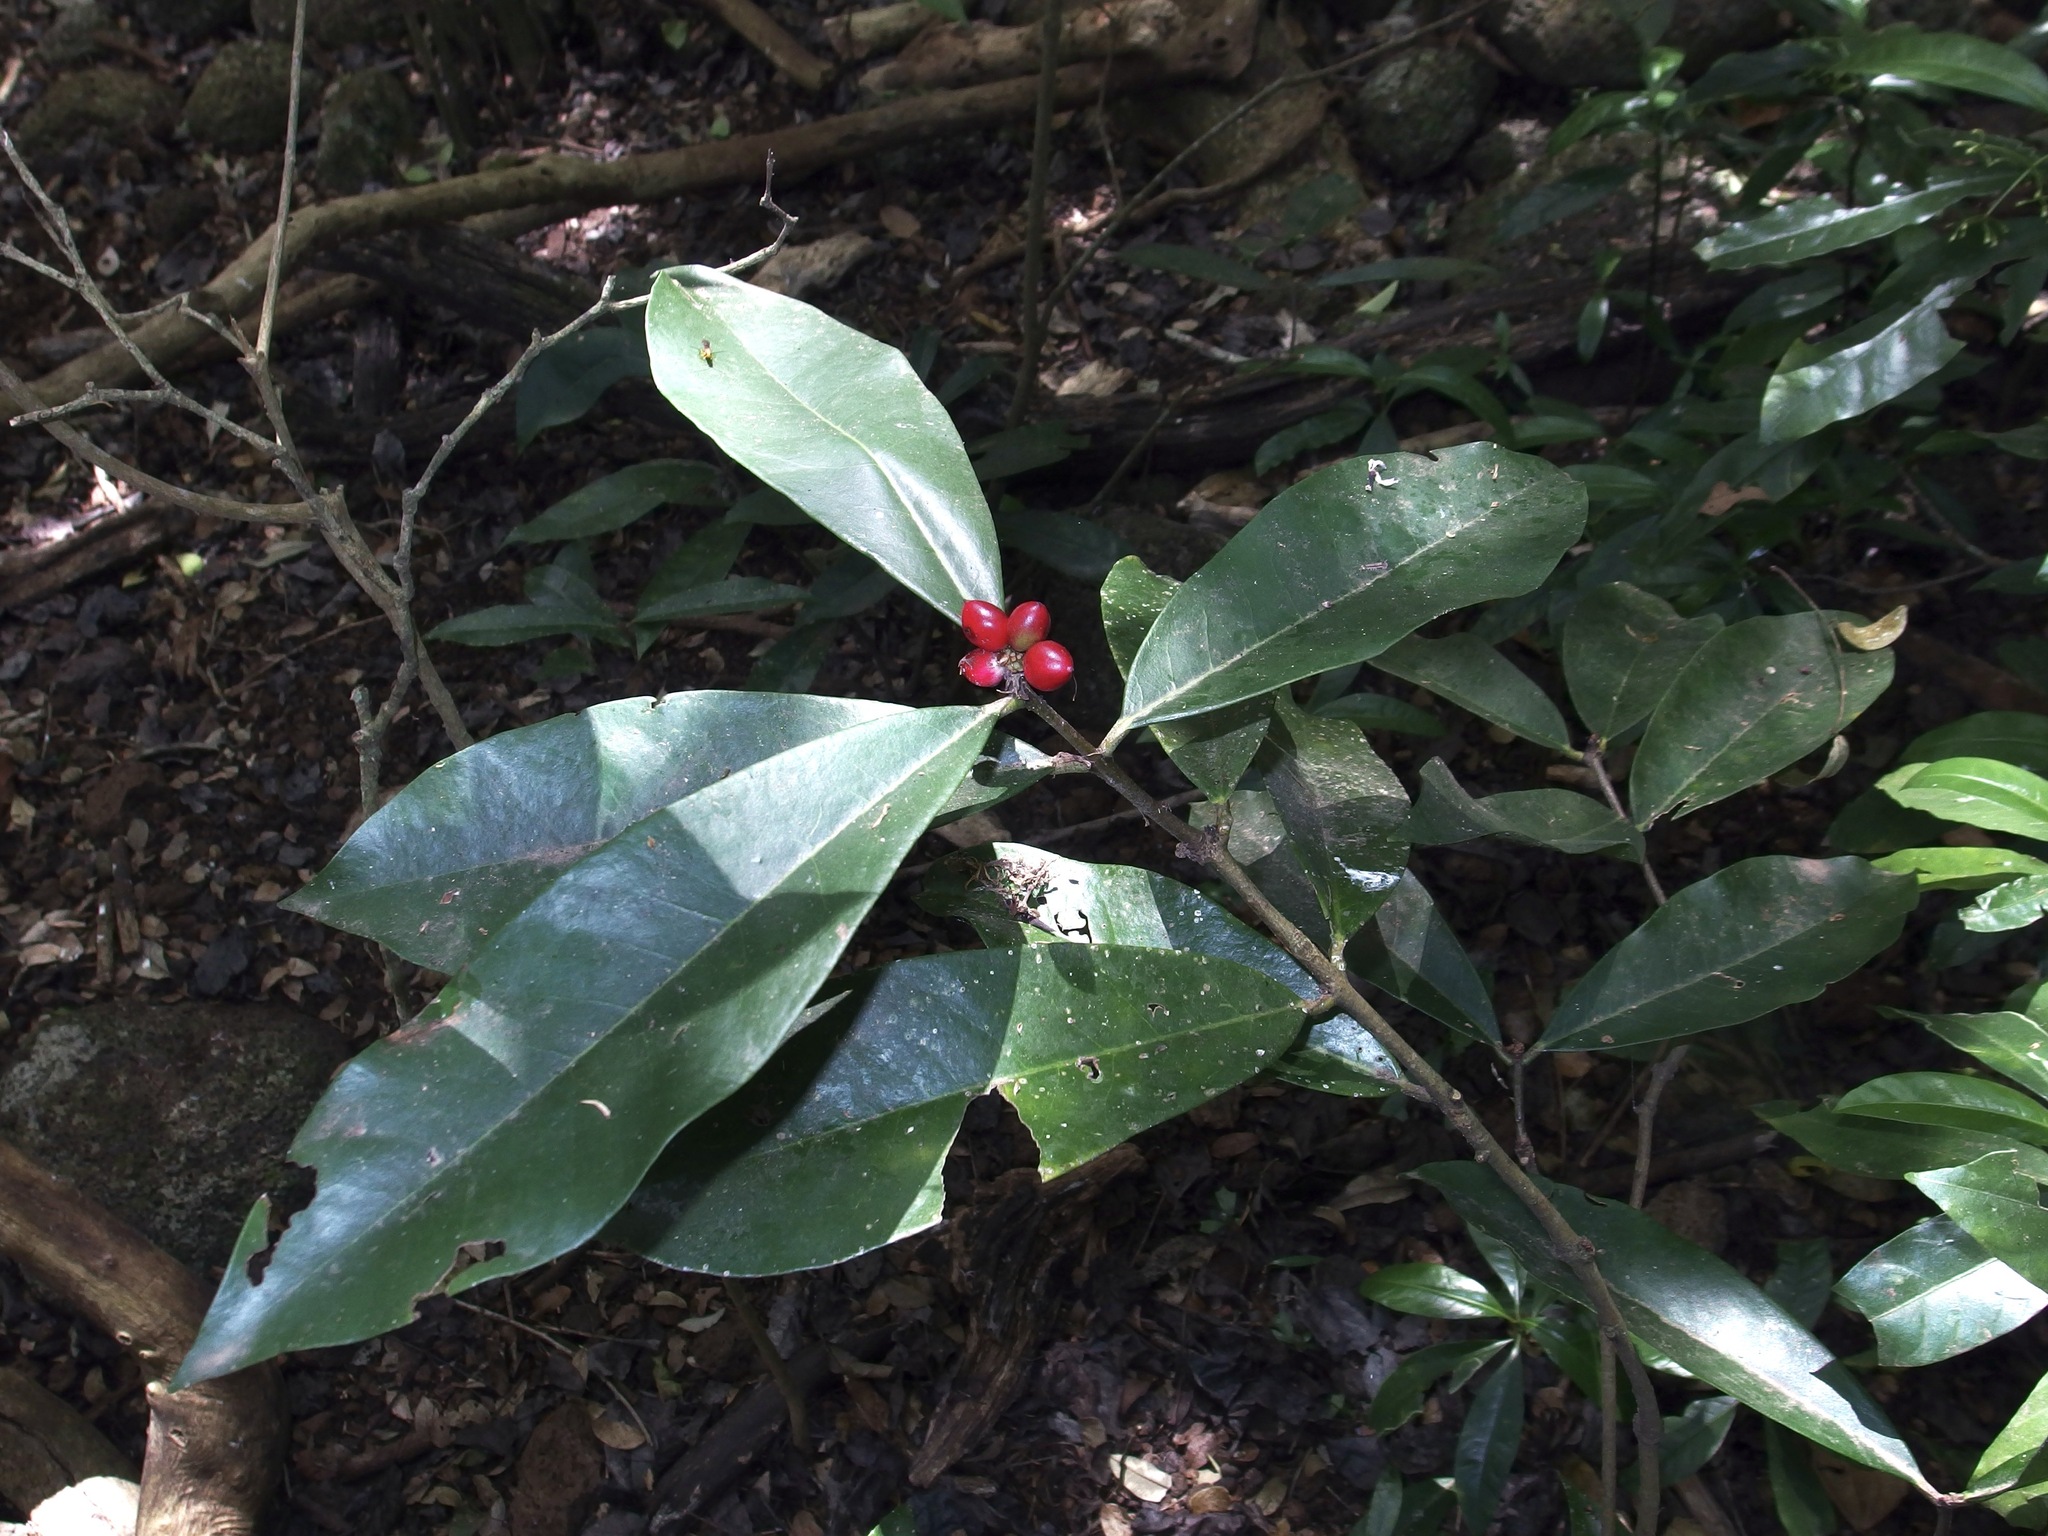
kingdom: Plantae
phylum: Tracheophyta
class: Magnoliopsida
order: Malvales
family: Thymelaeaceae
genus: Phaleria
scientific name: Phaleria octandra
